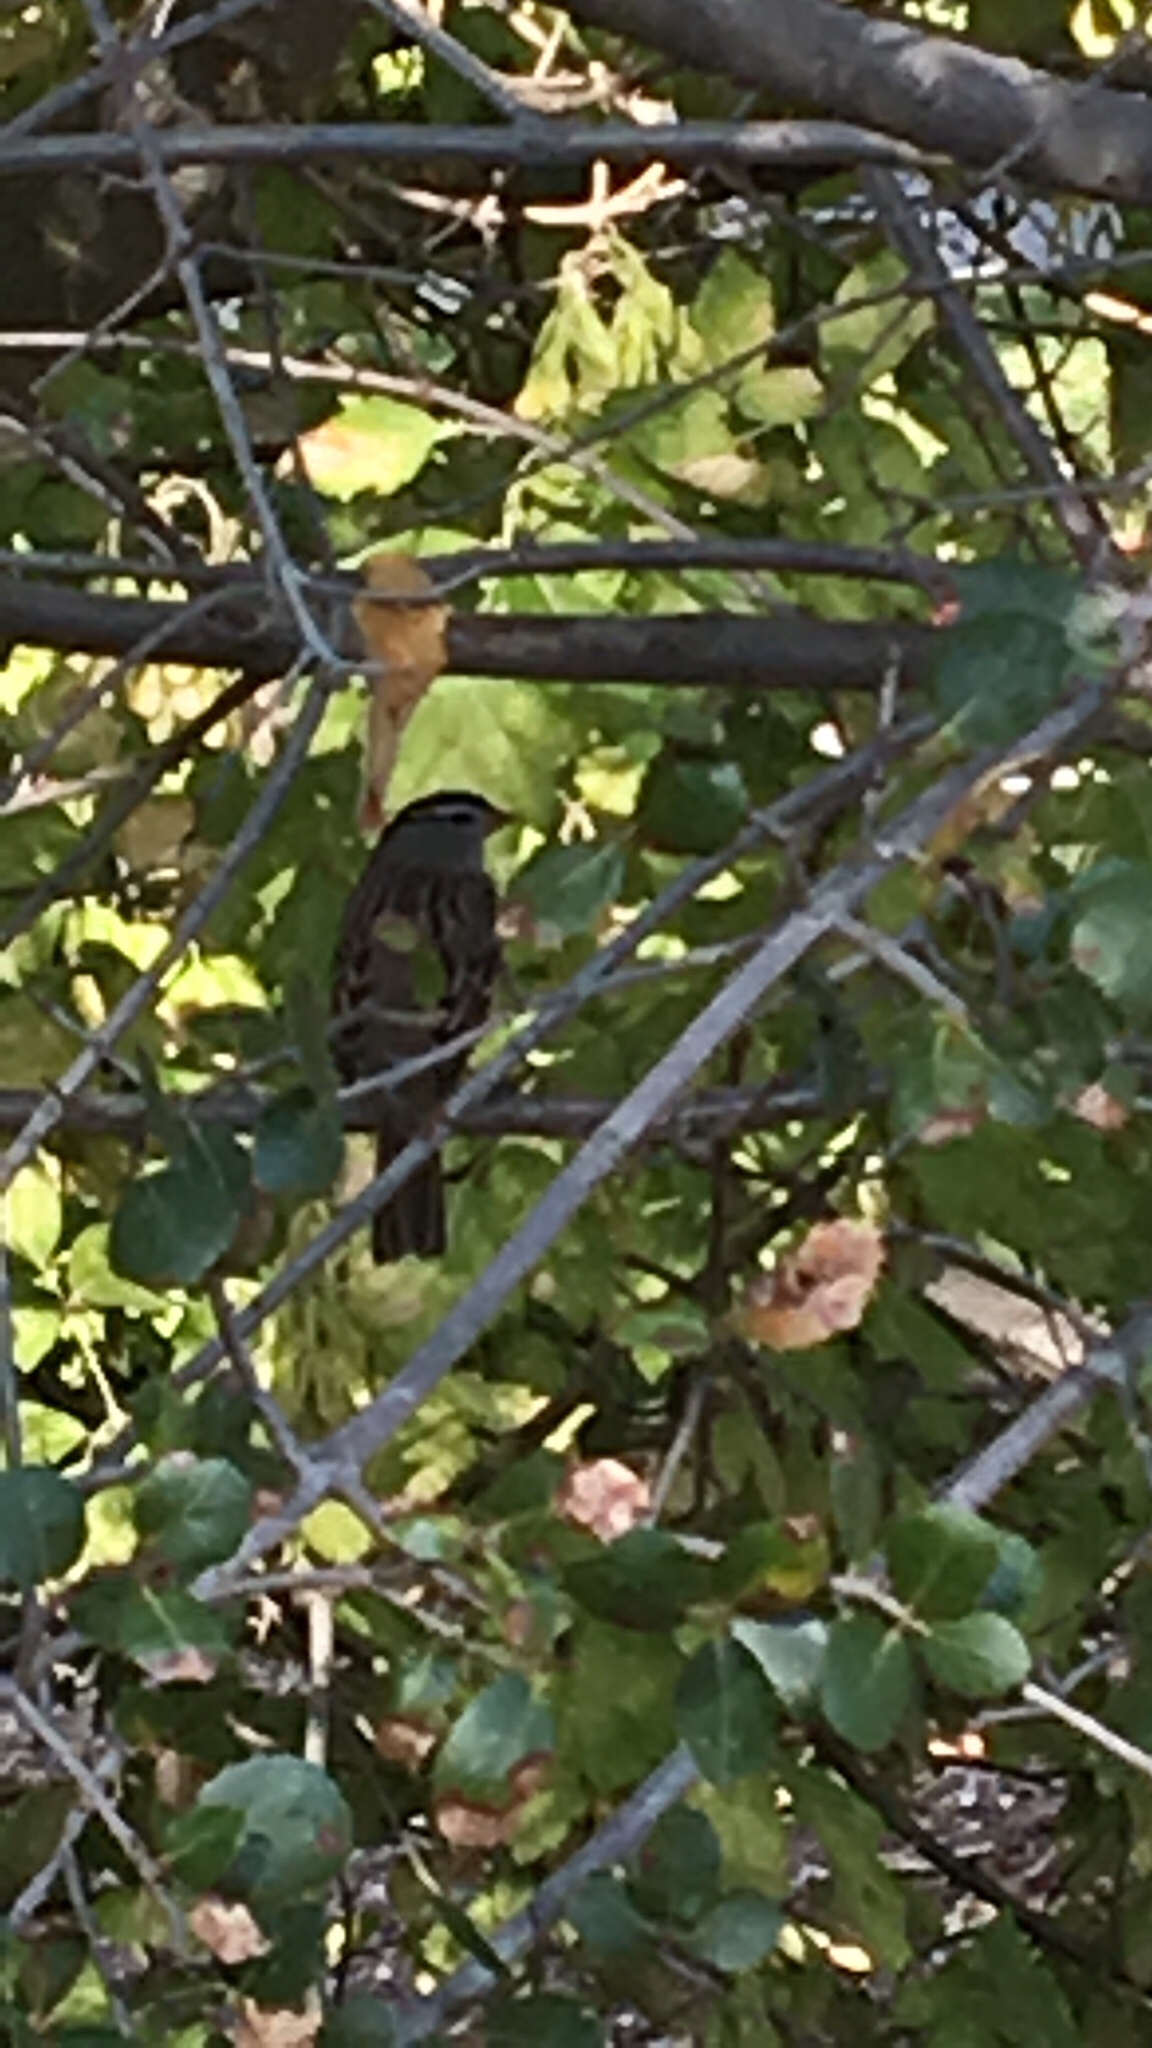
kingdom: Animalia
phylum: Chordata
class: Aves
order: Passeriformes
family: Passerellidae
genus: Zonotrichia
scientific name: Zonotrichia leucophrys
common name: White-crowned sparrow
